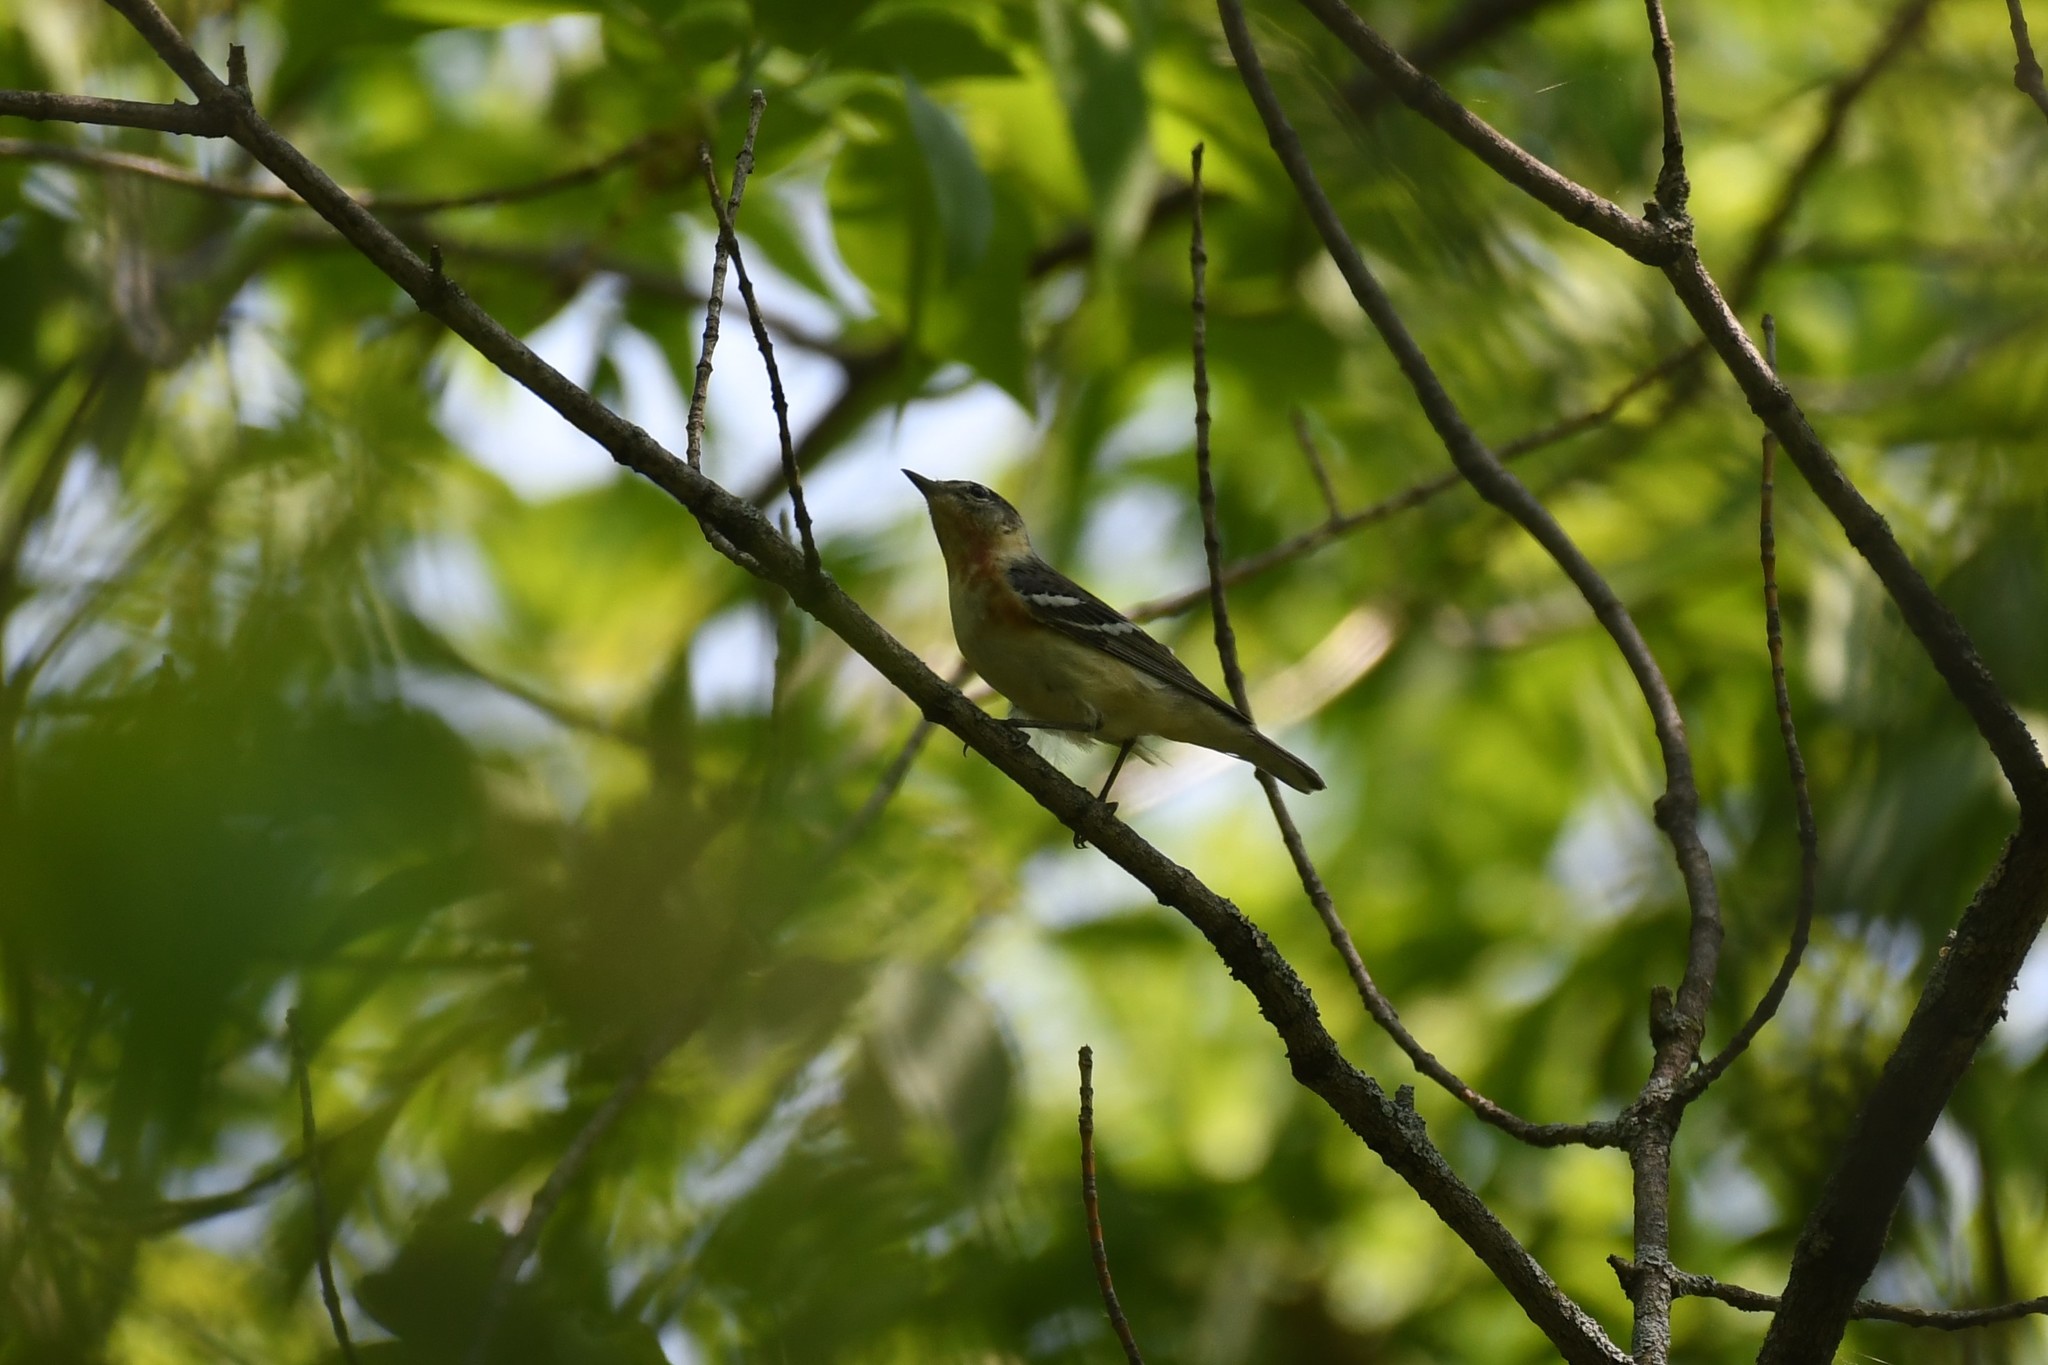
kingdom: Animalia
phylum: Chordata
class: Aves
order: Passeriformes
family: Parulidae
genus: Setophaga
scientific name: Setophaga castanea
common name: Bay-breasted warbler
